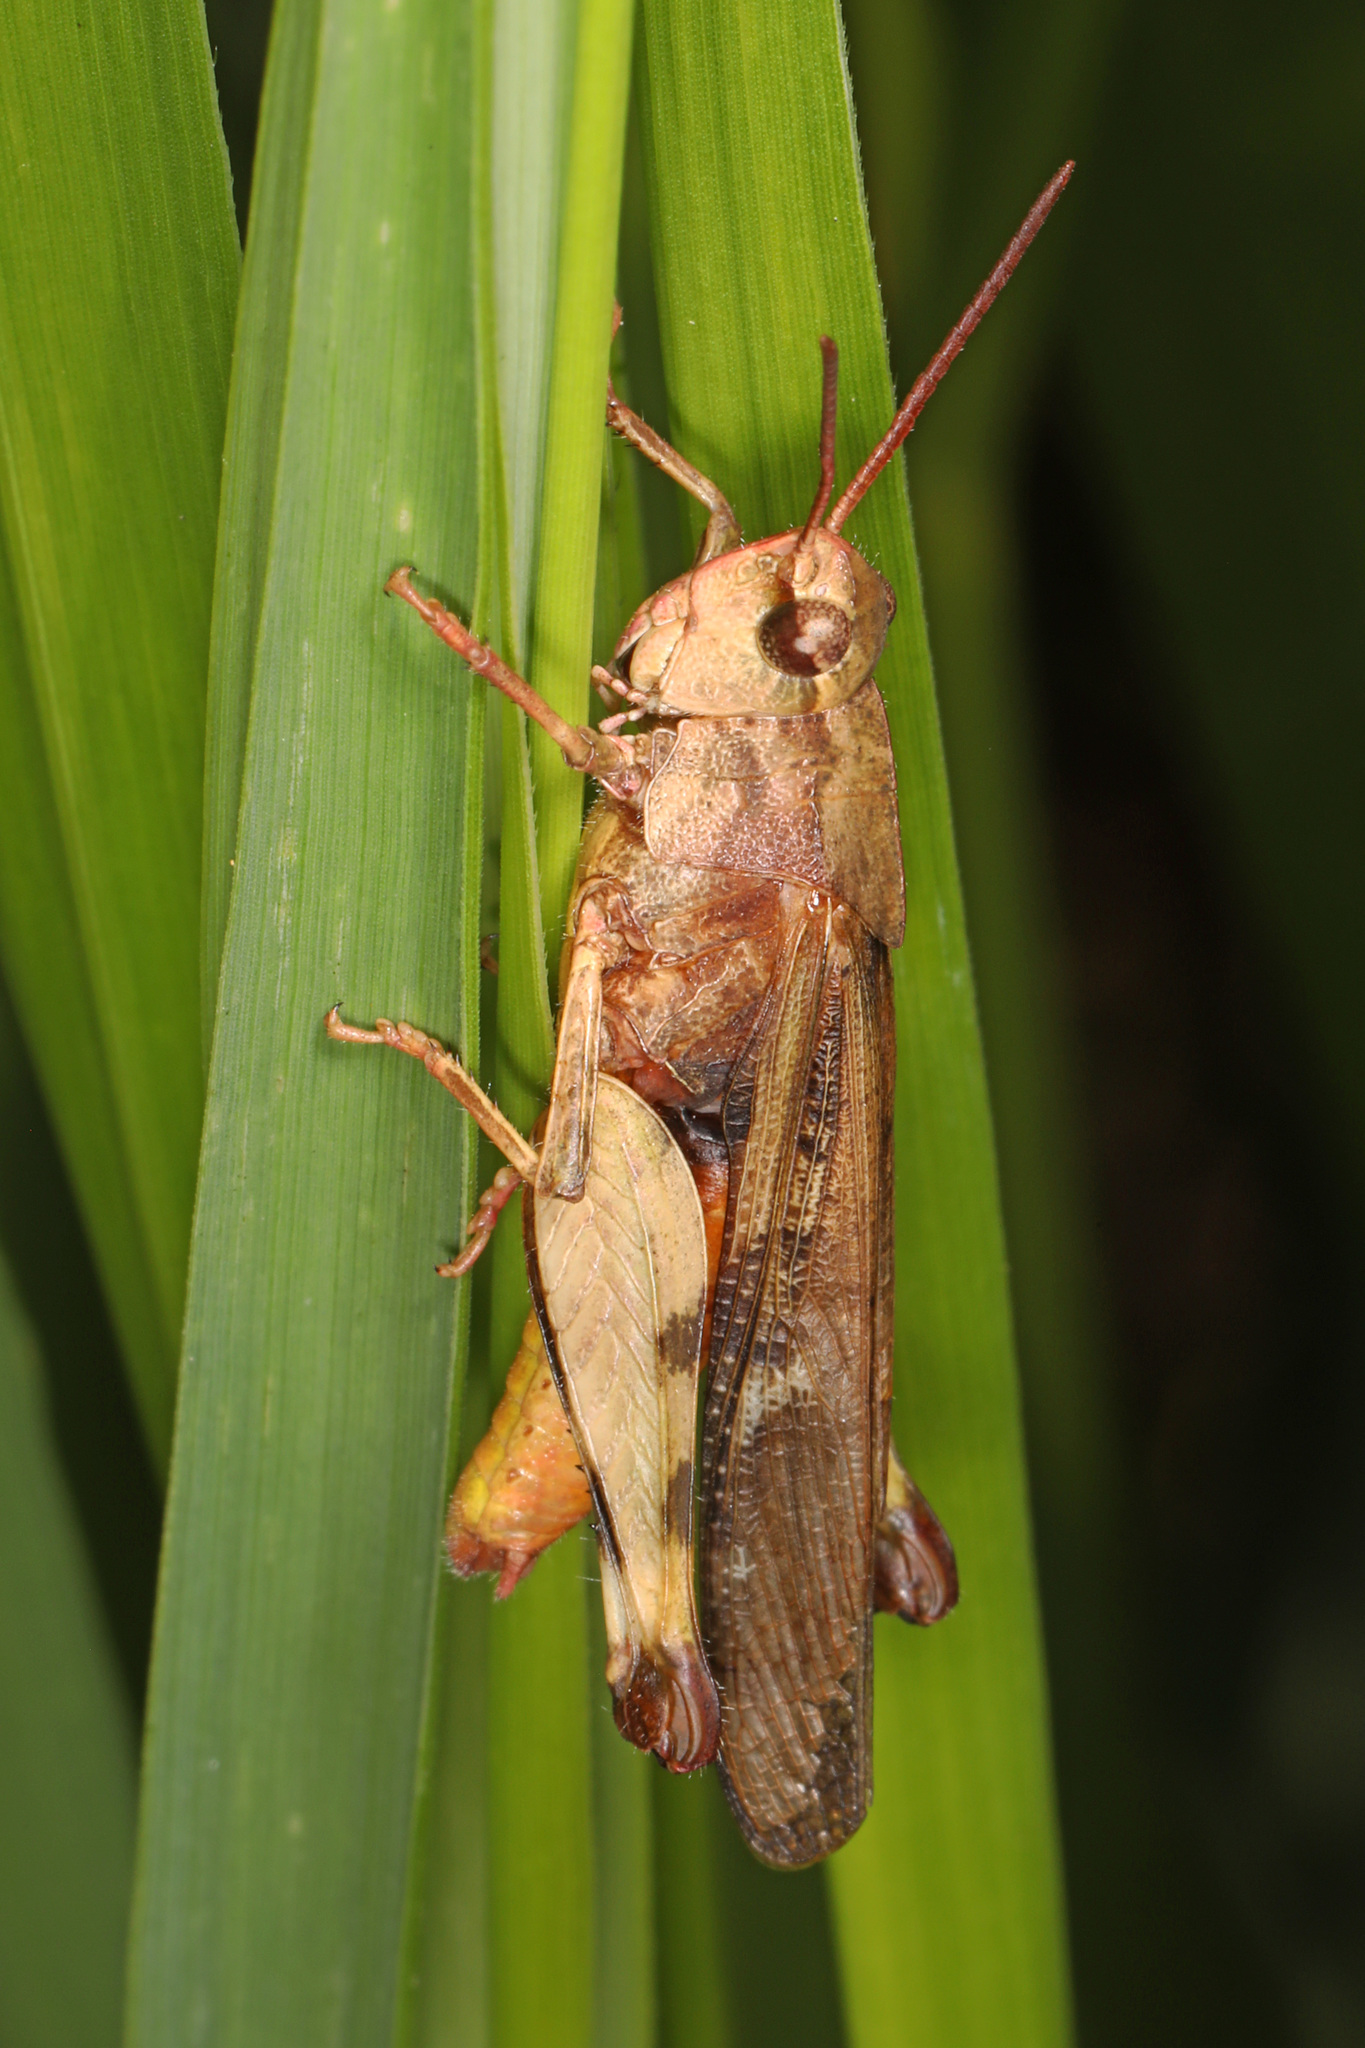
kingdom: Animalia
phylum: Arthropoda
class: Insecta
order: Orthoptera
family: Acrididae
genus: Chortophaga
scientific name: Chortophaga viridifasciata
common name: Green-striped grasshopper
